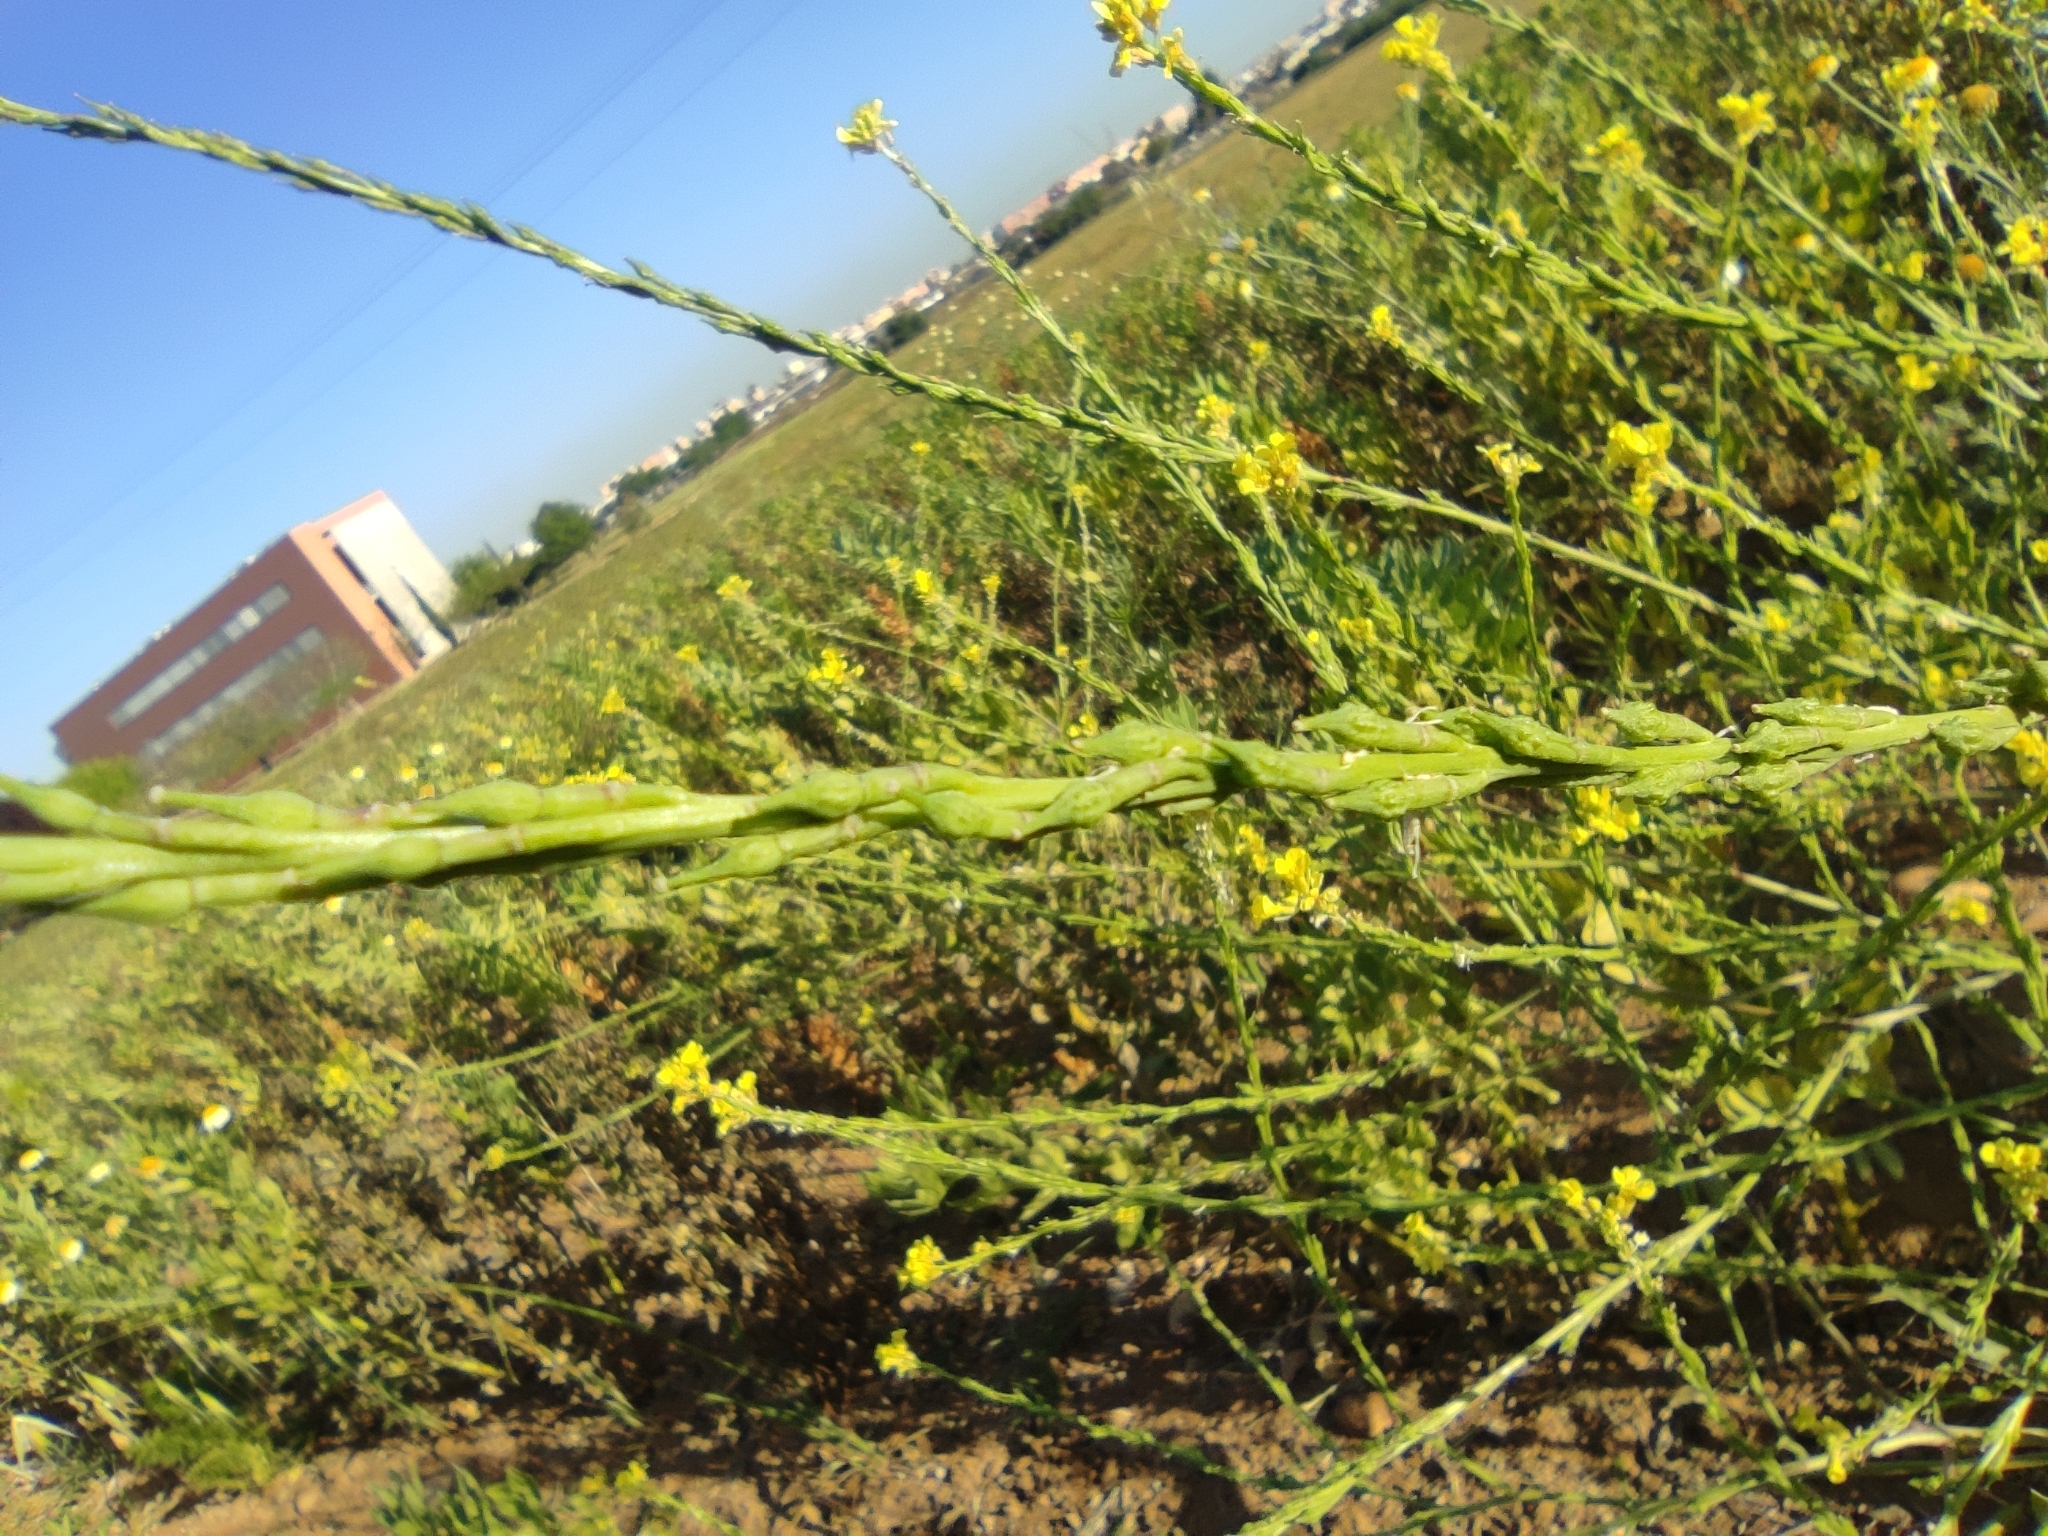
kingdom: Plantae
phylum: Tracheophyta
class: Magnoliopsida
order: Brassicales
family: Brassicaceae
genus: Rapistrum
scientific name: Rapistrum rugosum
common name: Annual bastardcabbage
